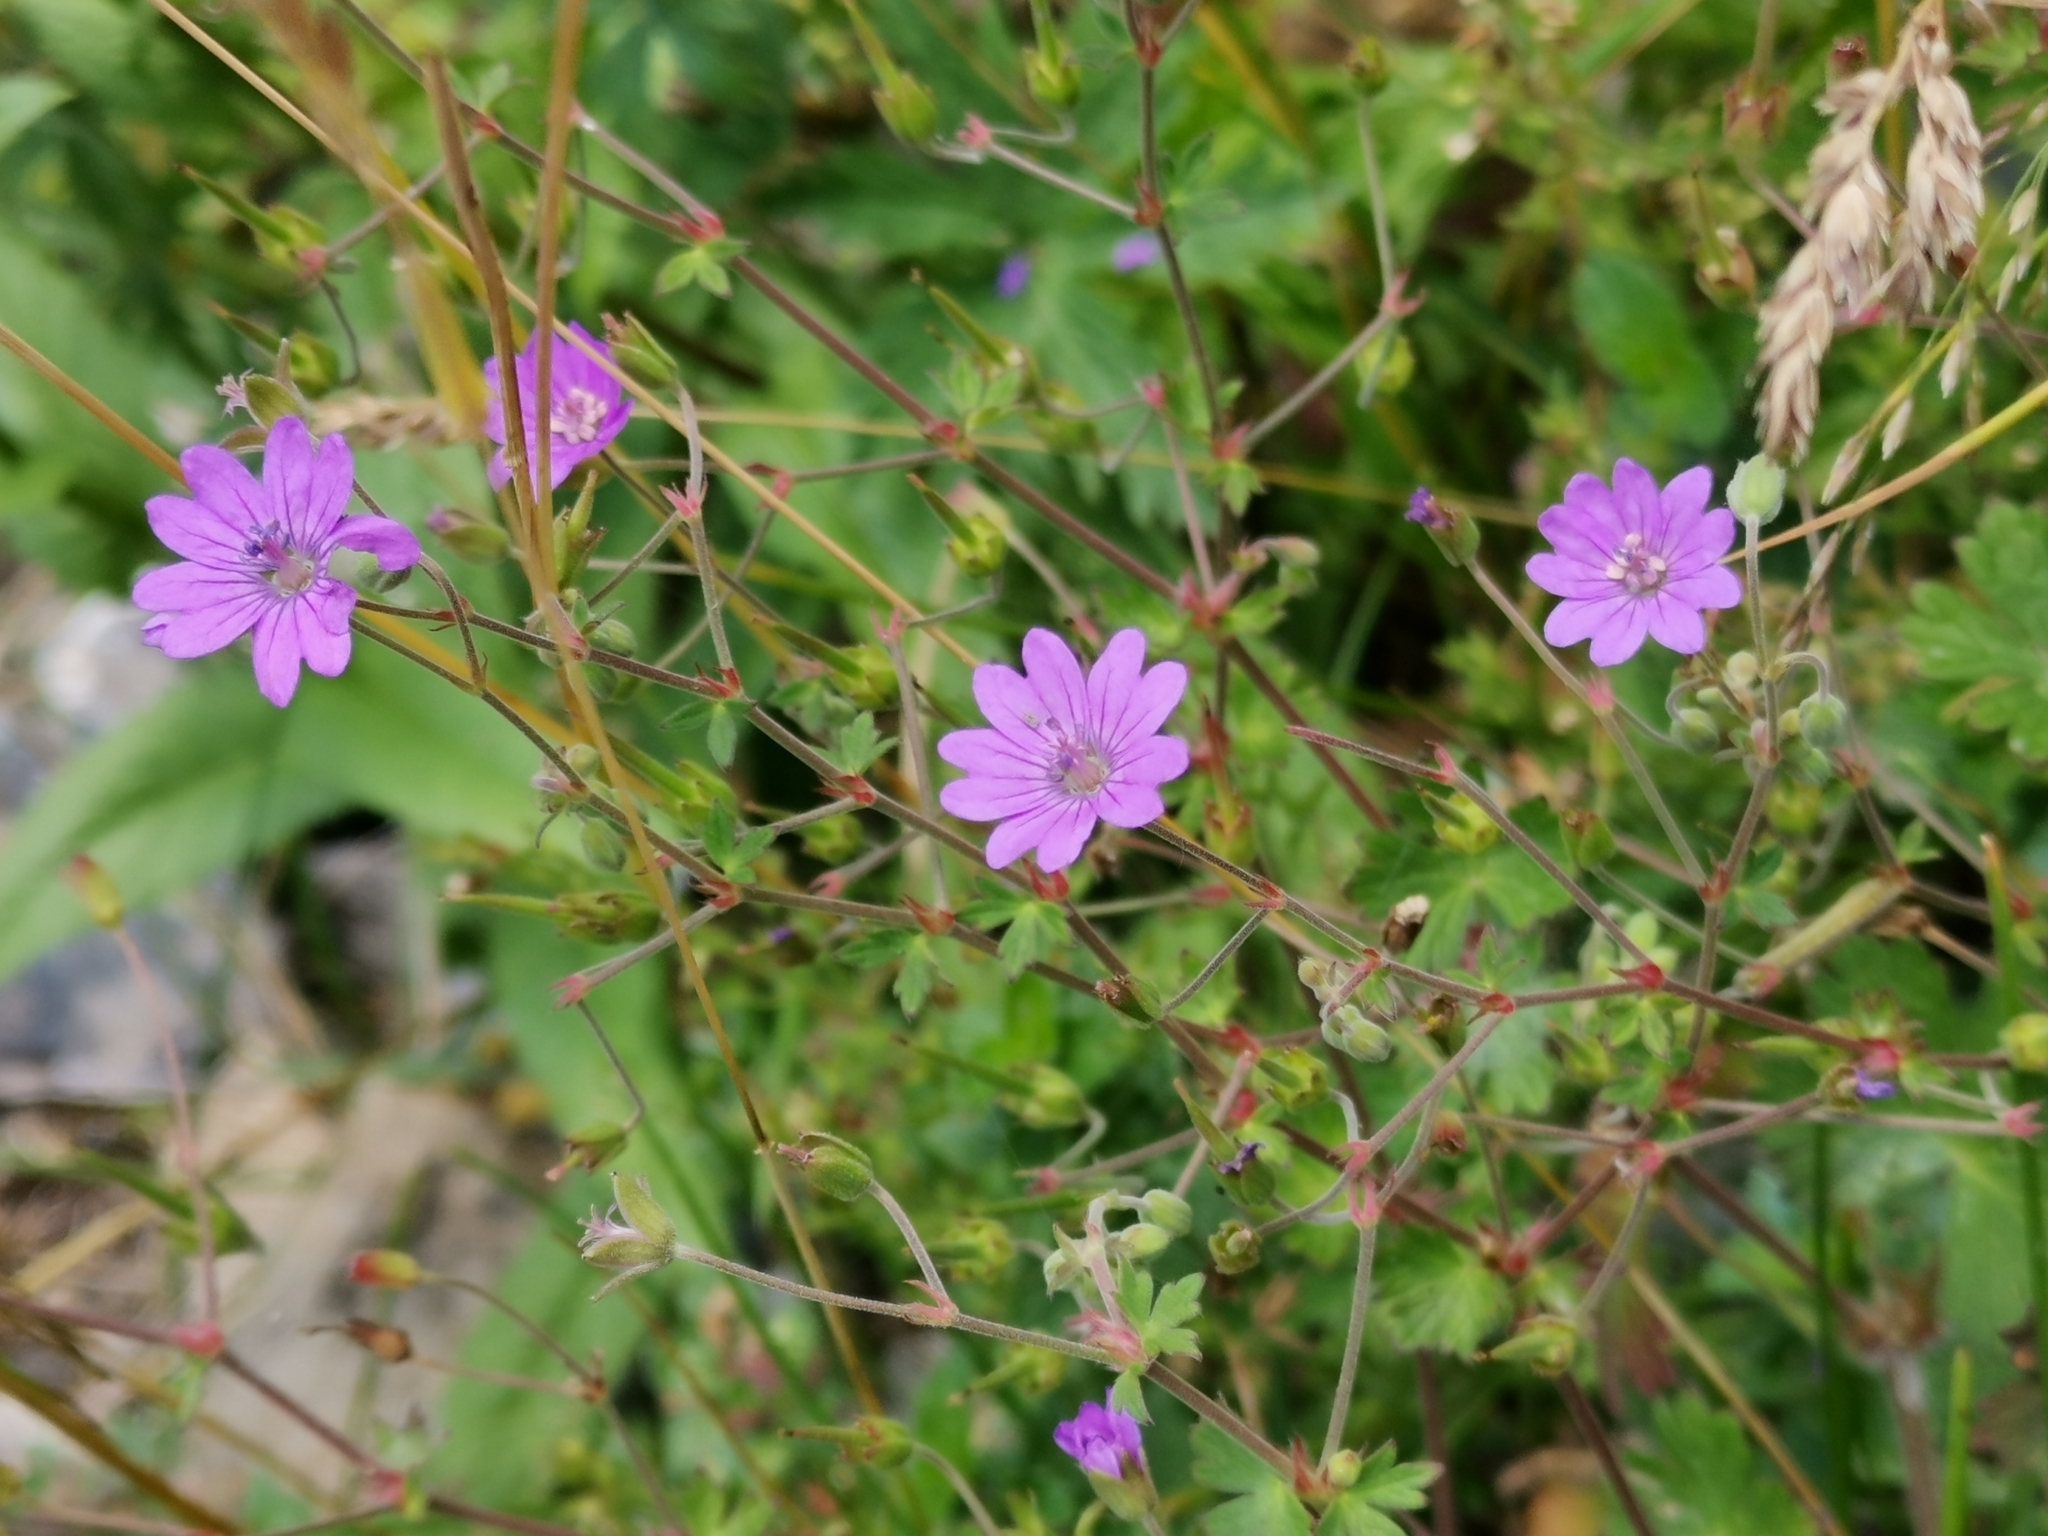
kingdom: Plantae
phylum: Tracheophyta
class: Magnoliopsida
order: Geraniales
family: Geraniaceae
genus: Geranium
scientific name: Geranium pyrenaicum
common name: Hedgerow crane's-bill
